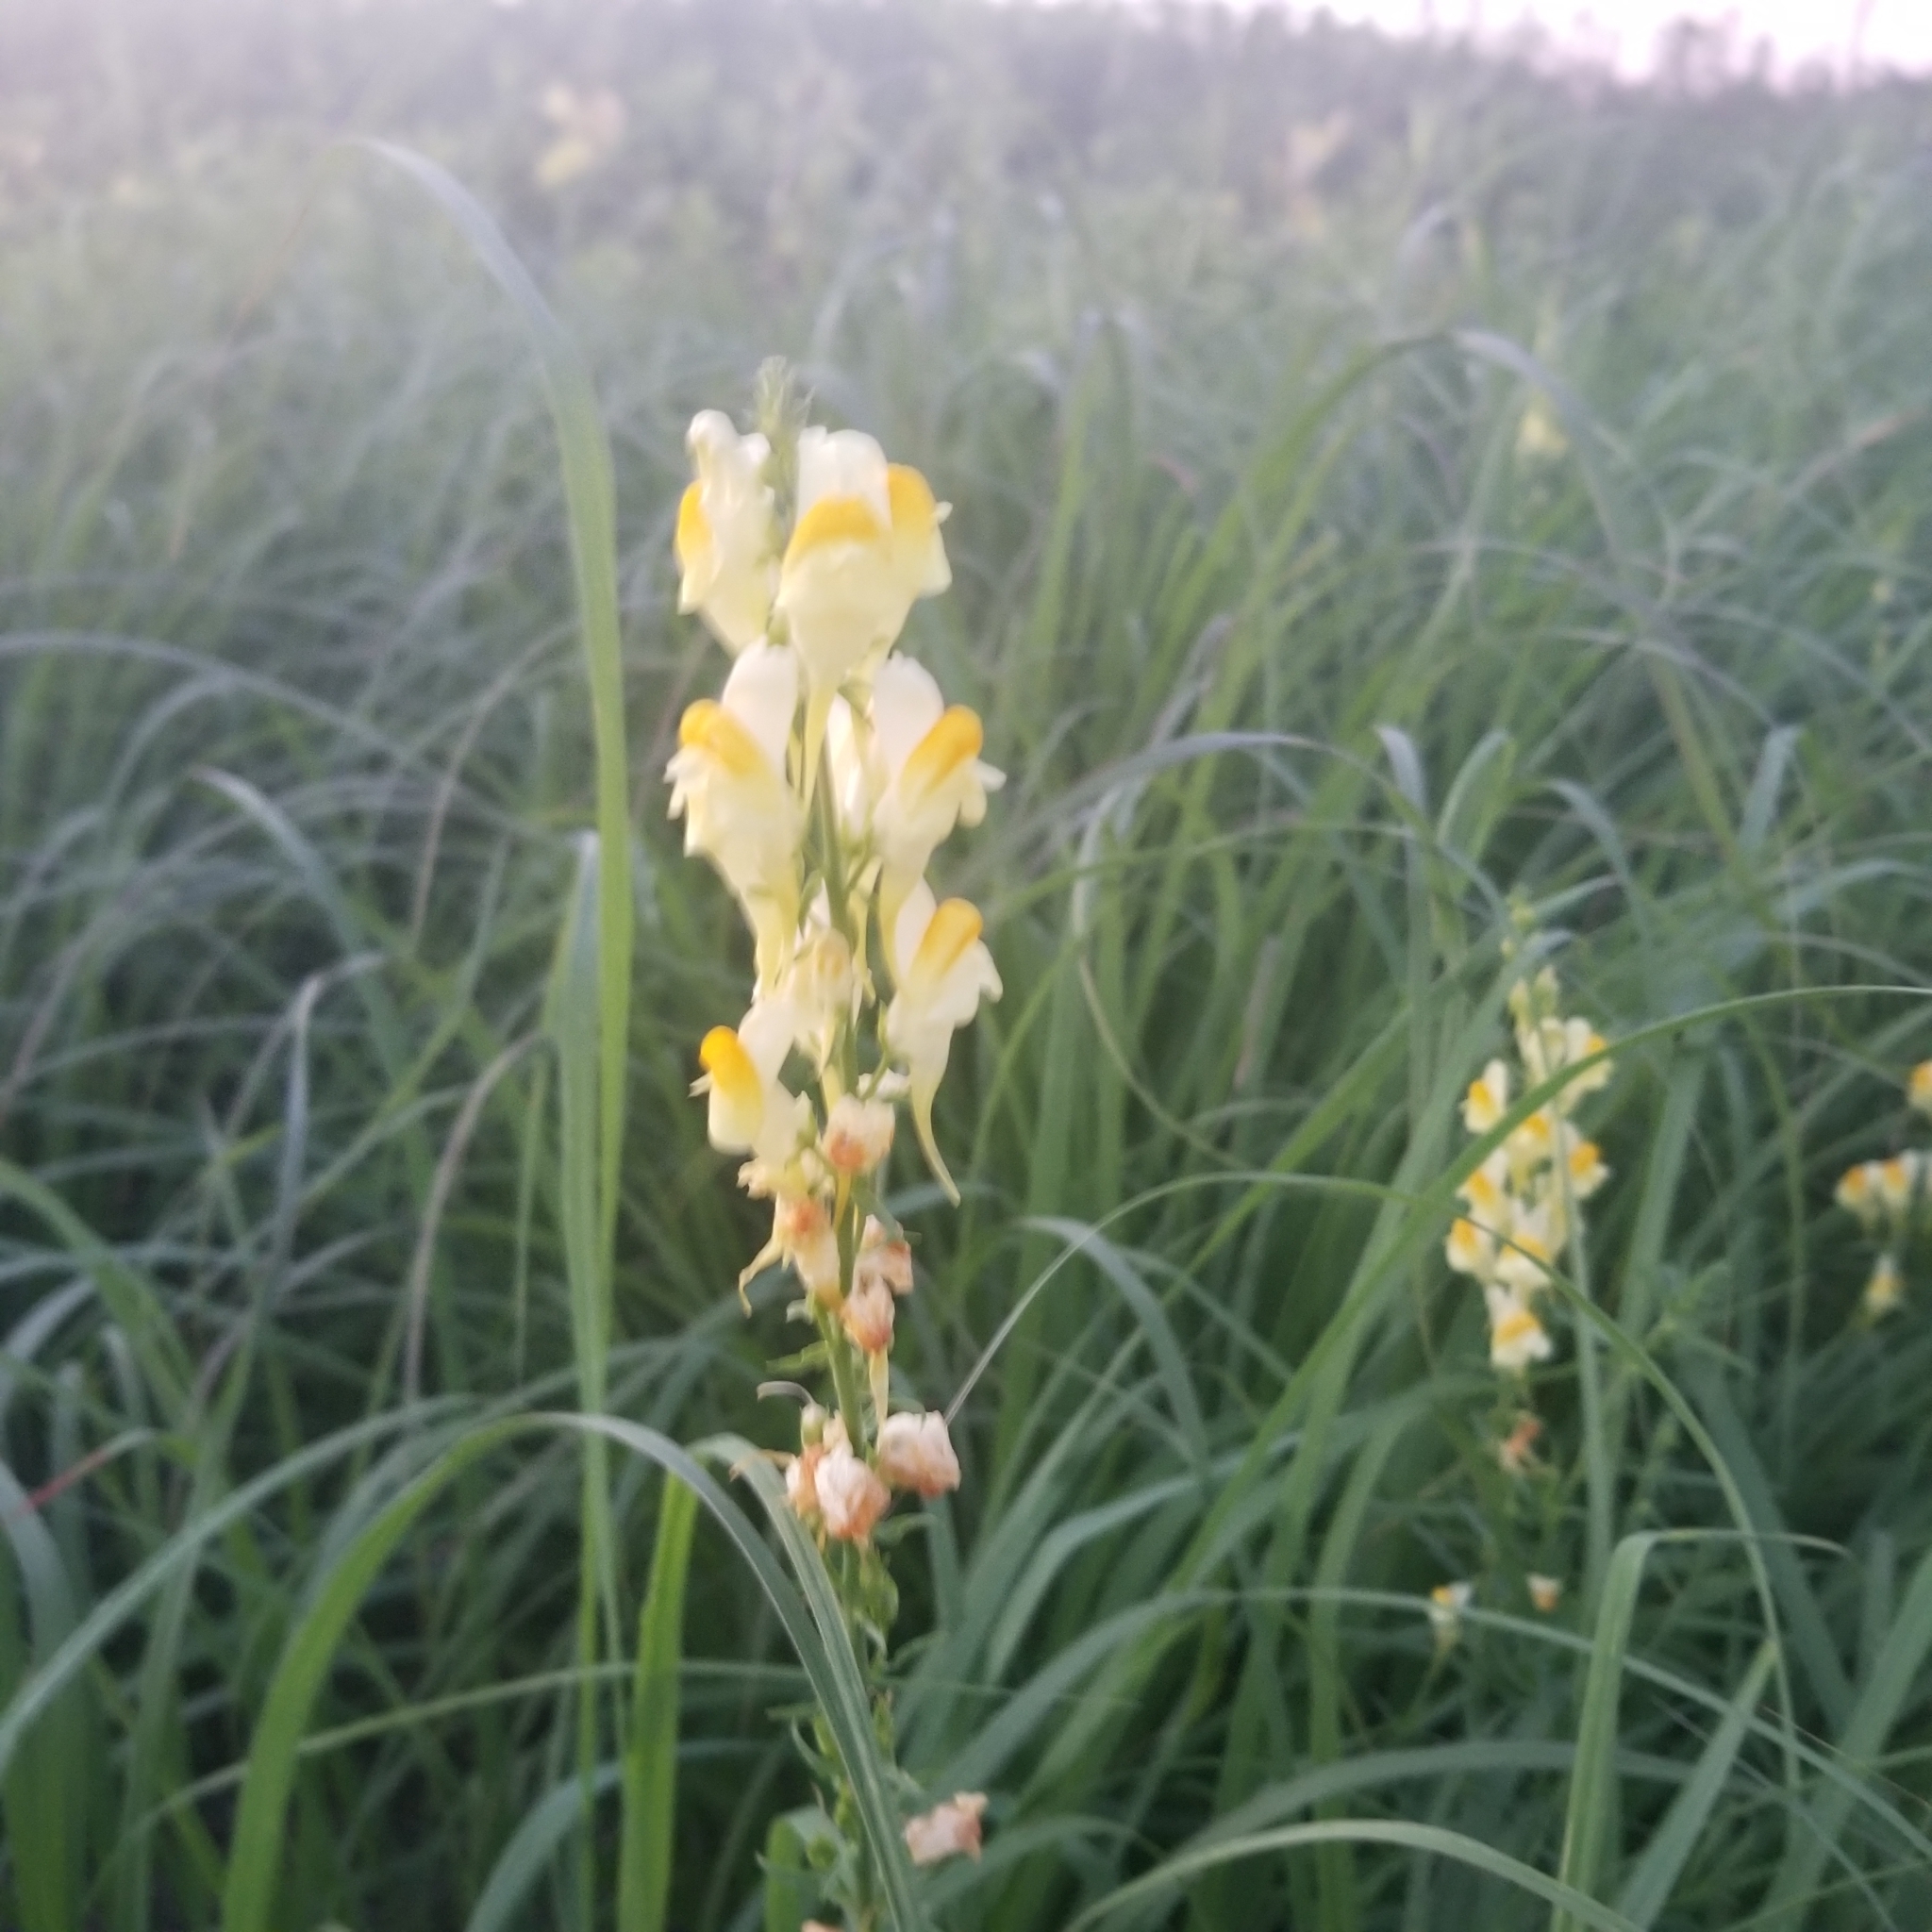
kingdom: Plantae
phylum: Tracheophyta
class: Magnoliopsida
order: Lamiales
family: Plantaginaceae
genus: Linaria
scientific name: Linaria vulgaris
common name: Butter and eggs
